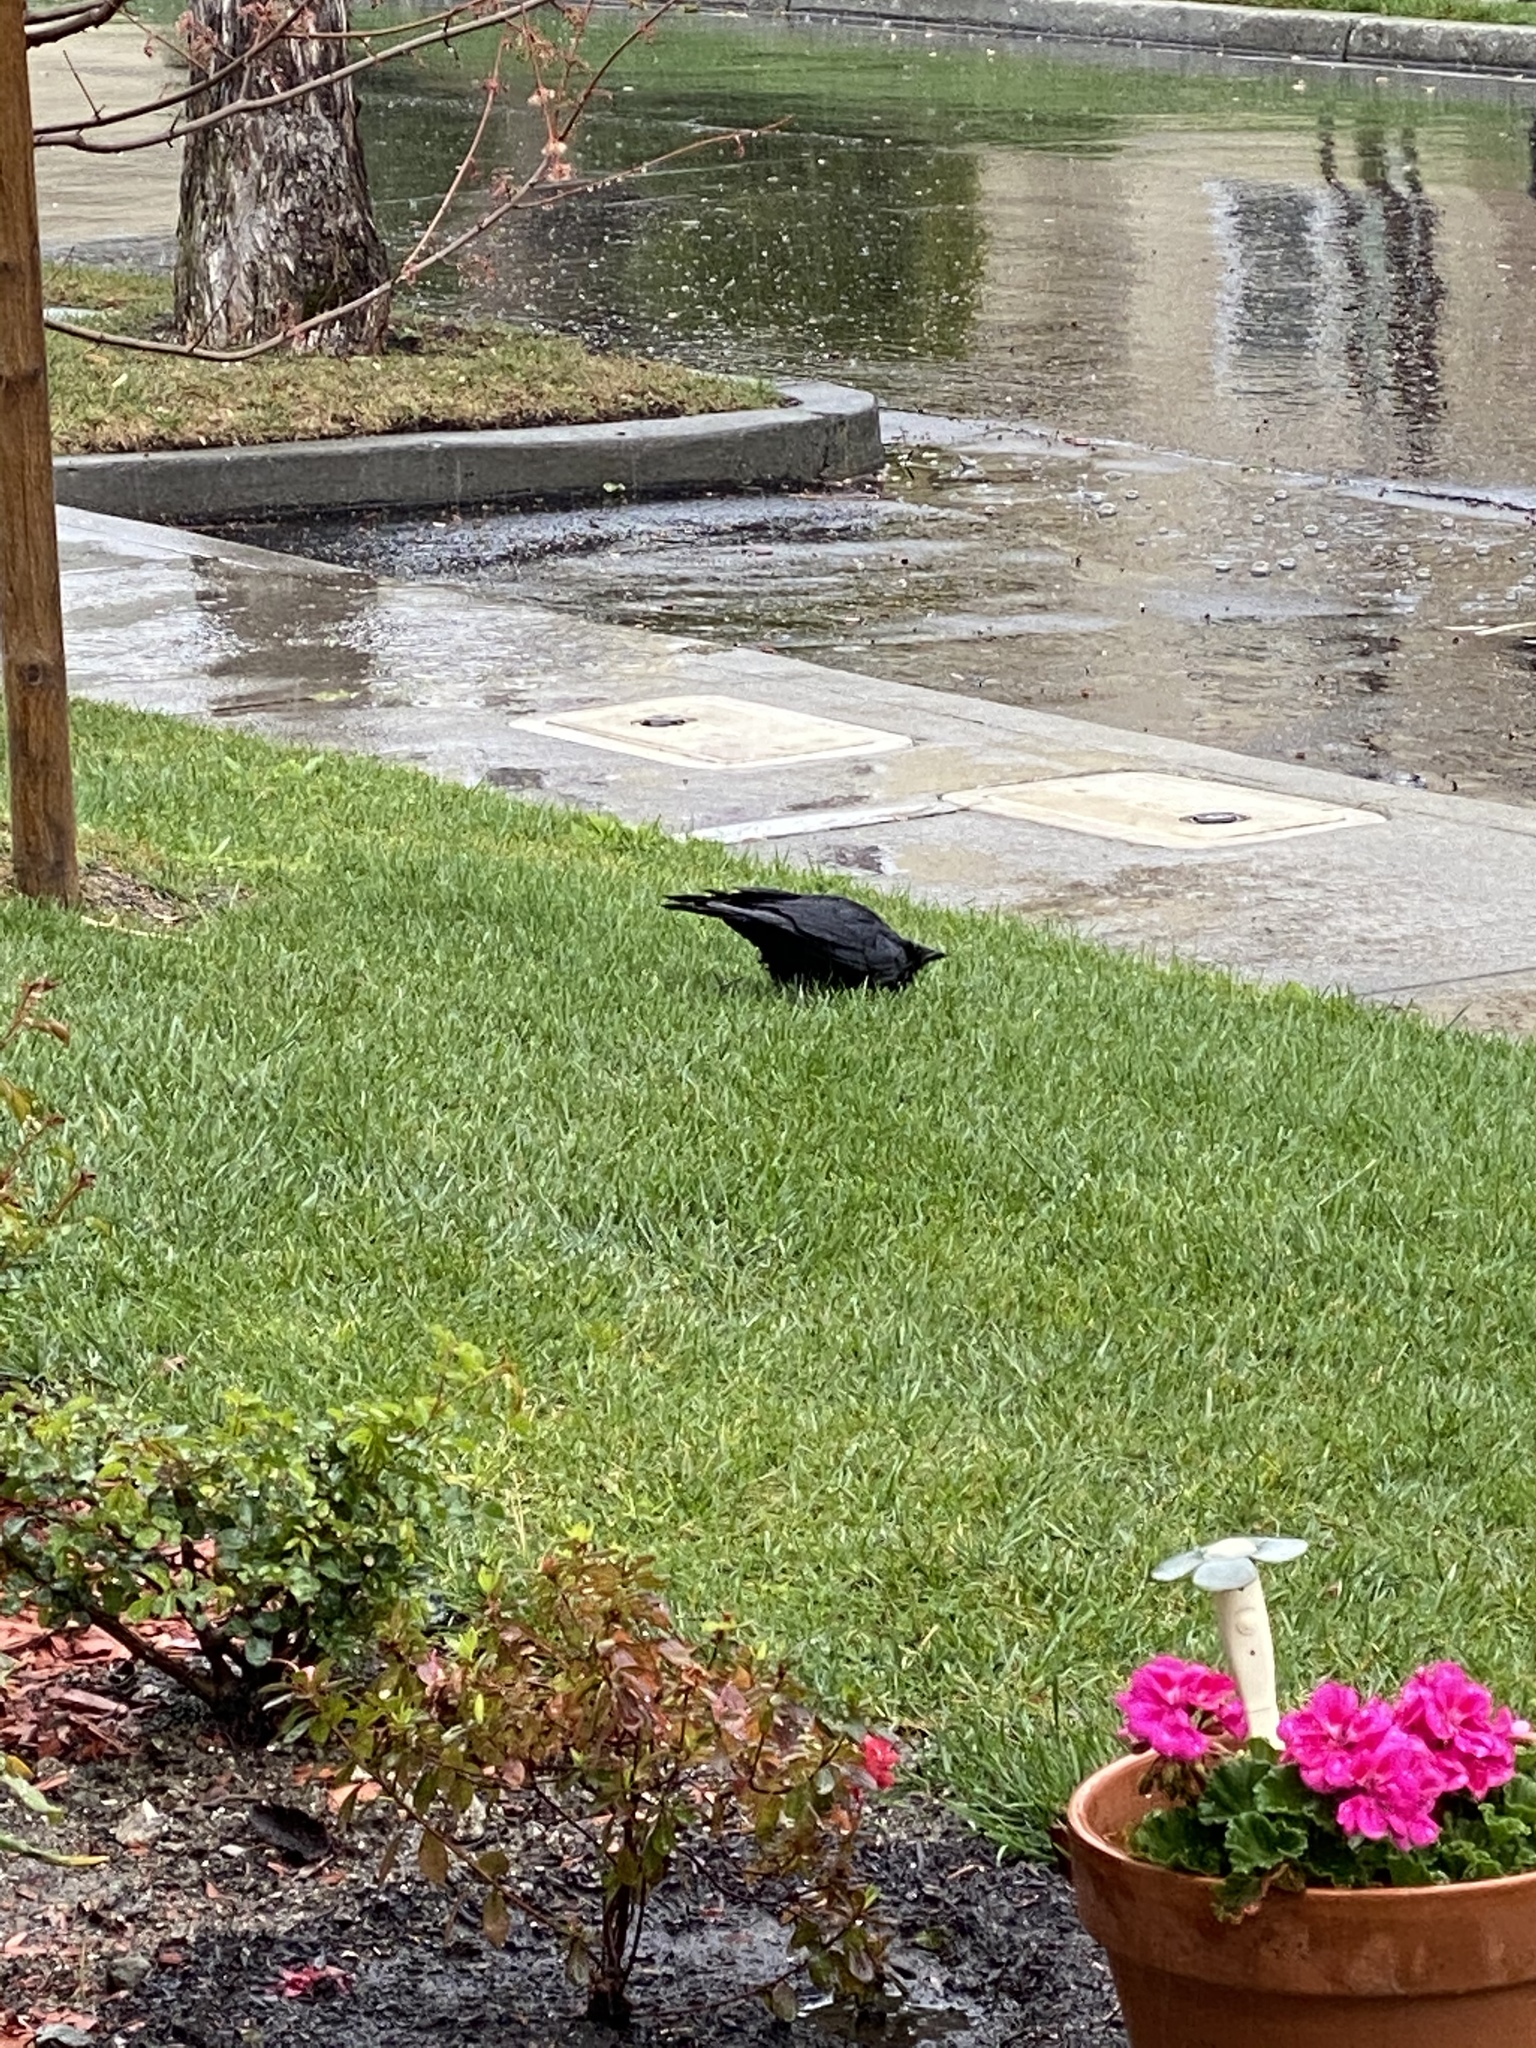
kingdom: Animalia
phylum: Chordata
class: Aves
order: Passeriformes
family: Corvidae
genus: Corvus
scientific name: Corvus brachyrhynchos
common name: American crow
